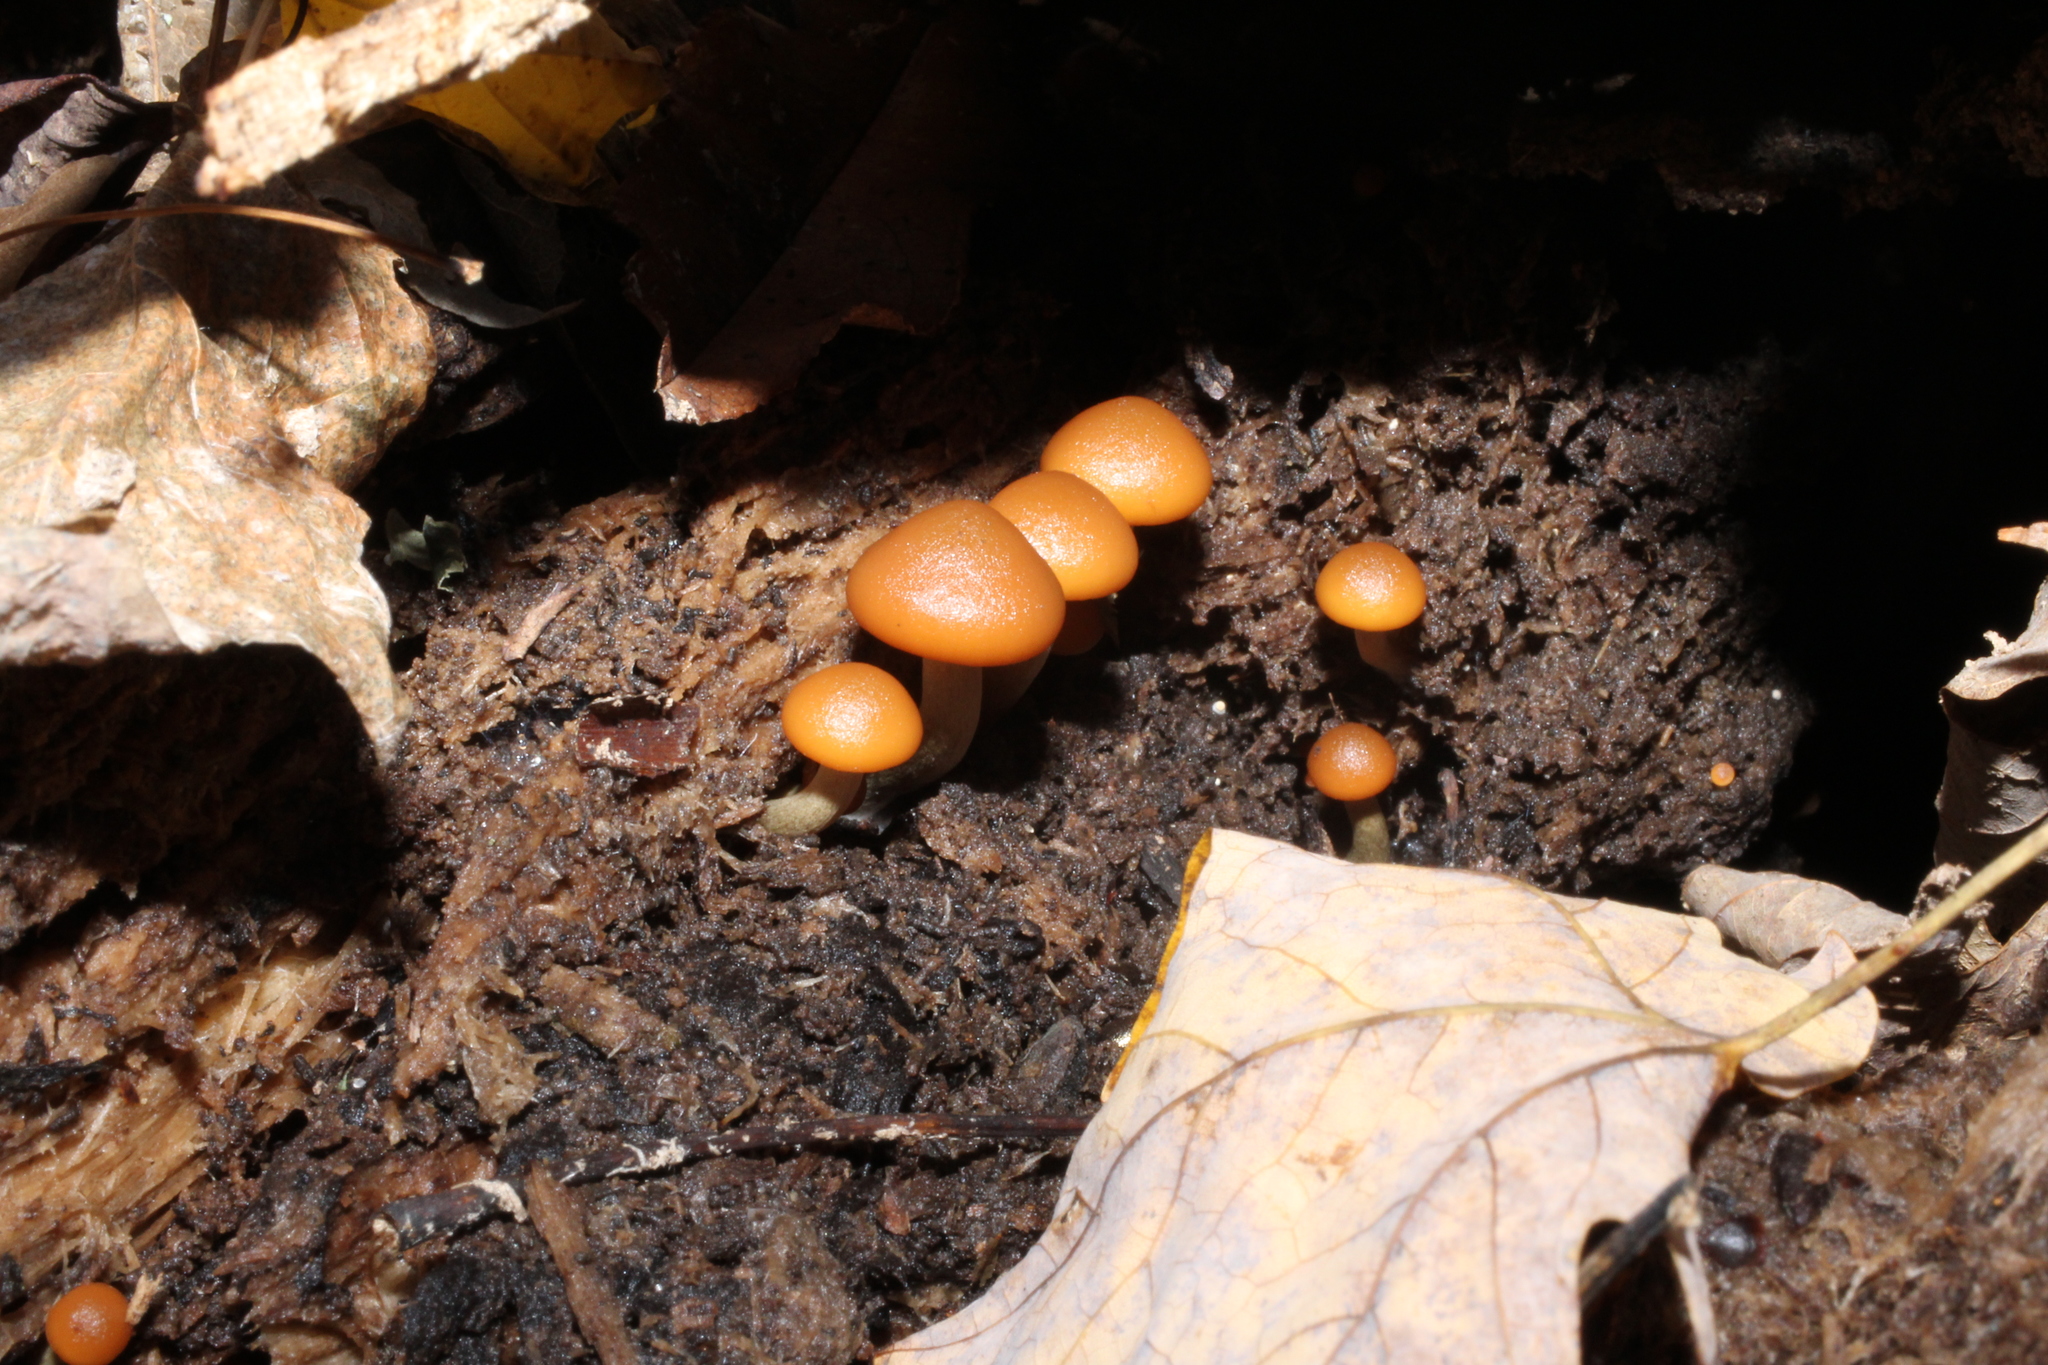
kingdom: Fungi
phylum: Basidiomycota
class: Agaricomycetes
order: Agaricales
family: Hymenogastraceae
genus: Galerina
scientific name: Galerina marginata
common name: Funeral bell
